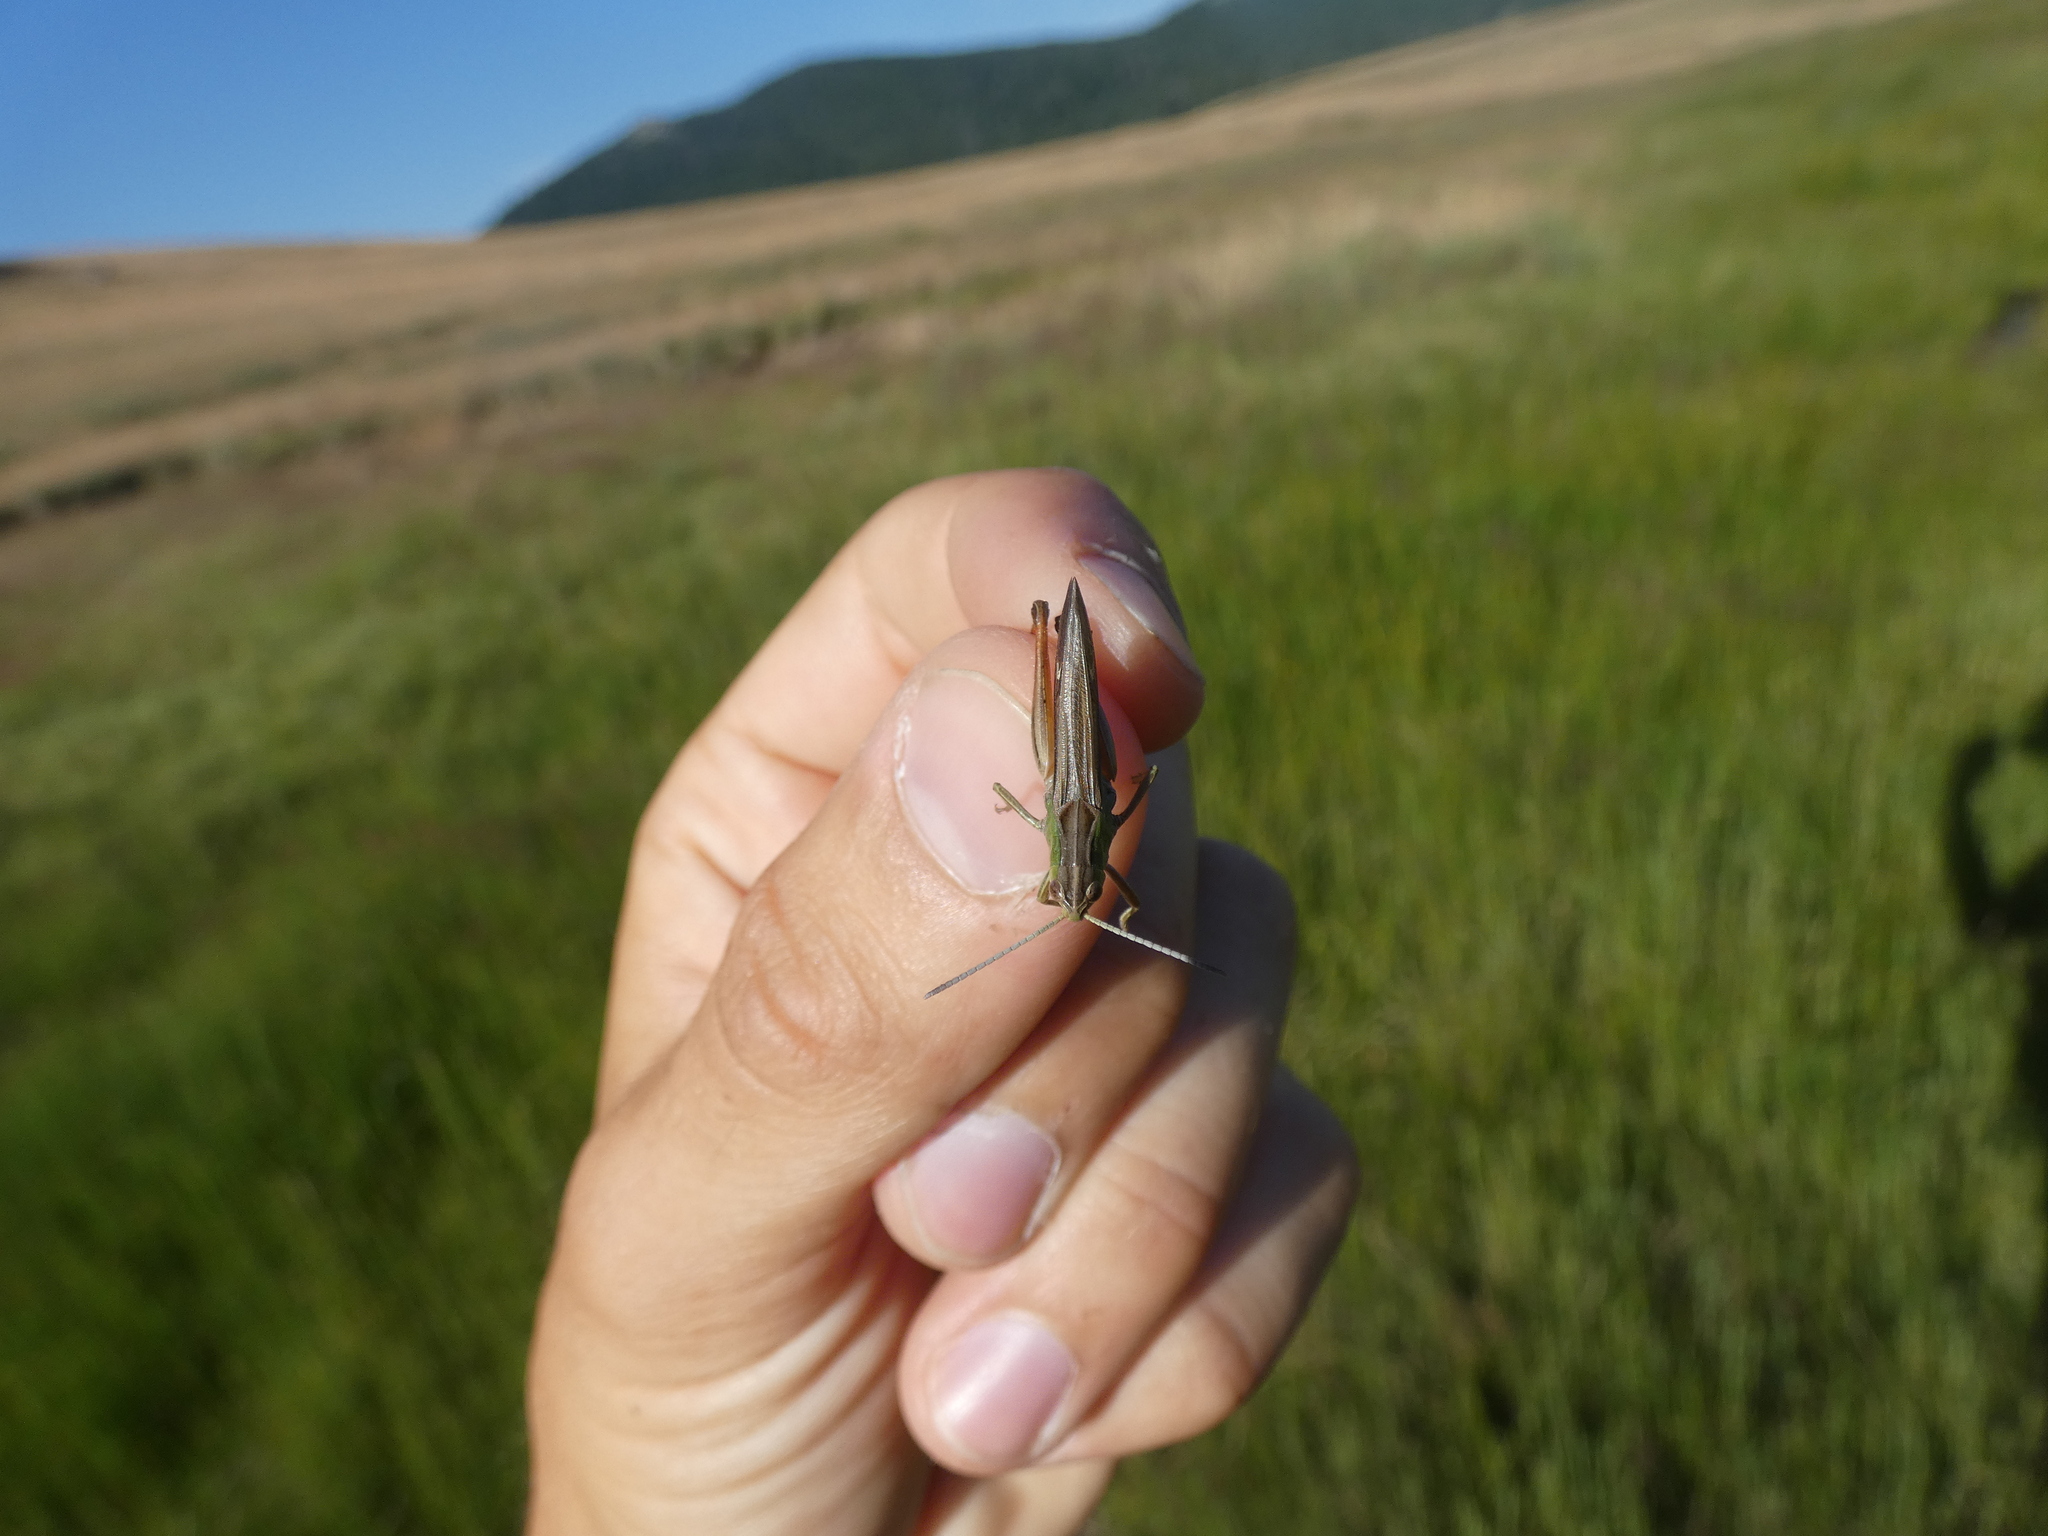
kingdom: Animalia
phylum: Arthropoda
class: Insecta
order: Orthoptera
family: Acrididae
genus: Stenobothrus
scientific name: Stenobothrus lineatus
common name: Stripe-winged grasshopper
